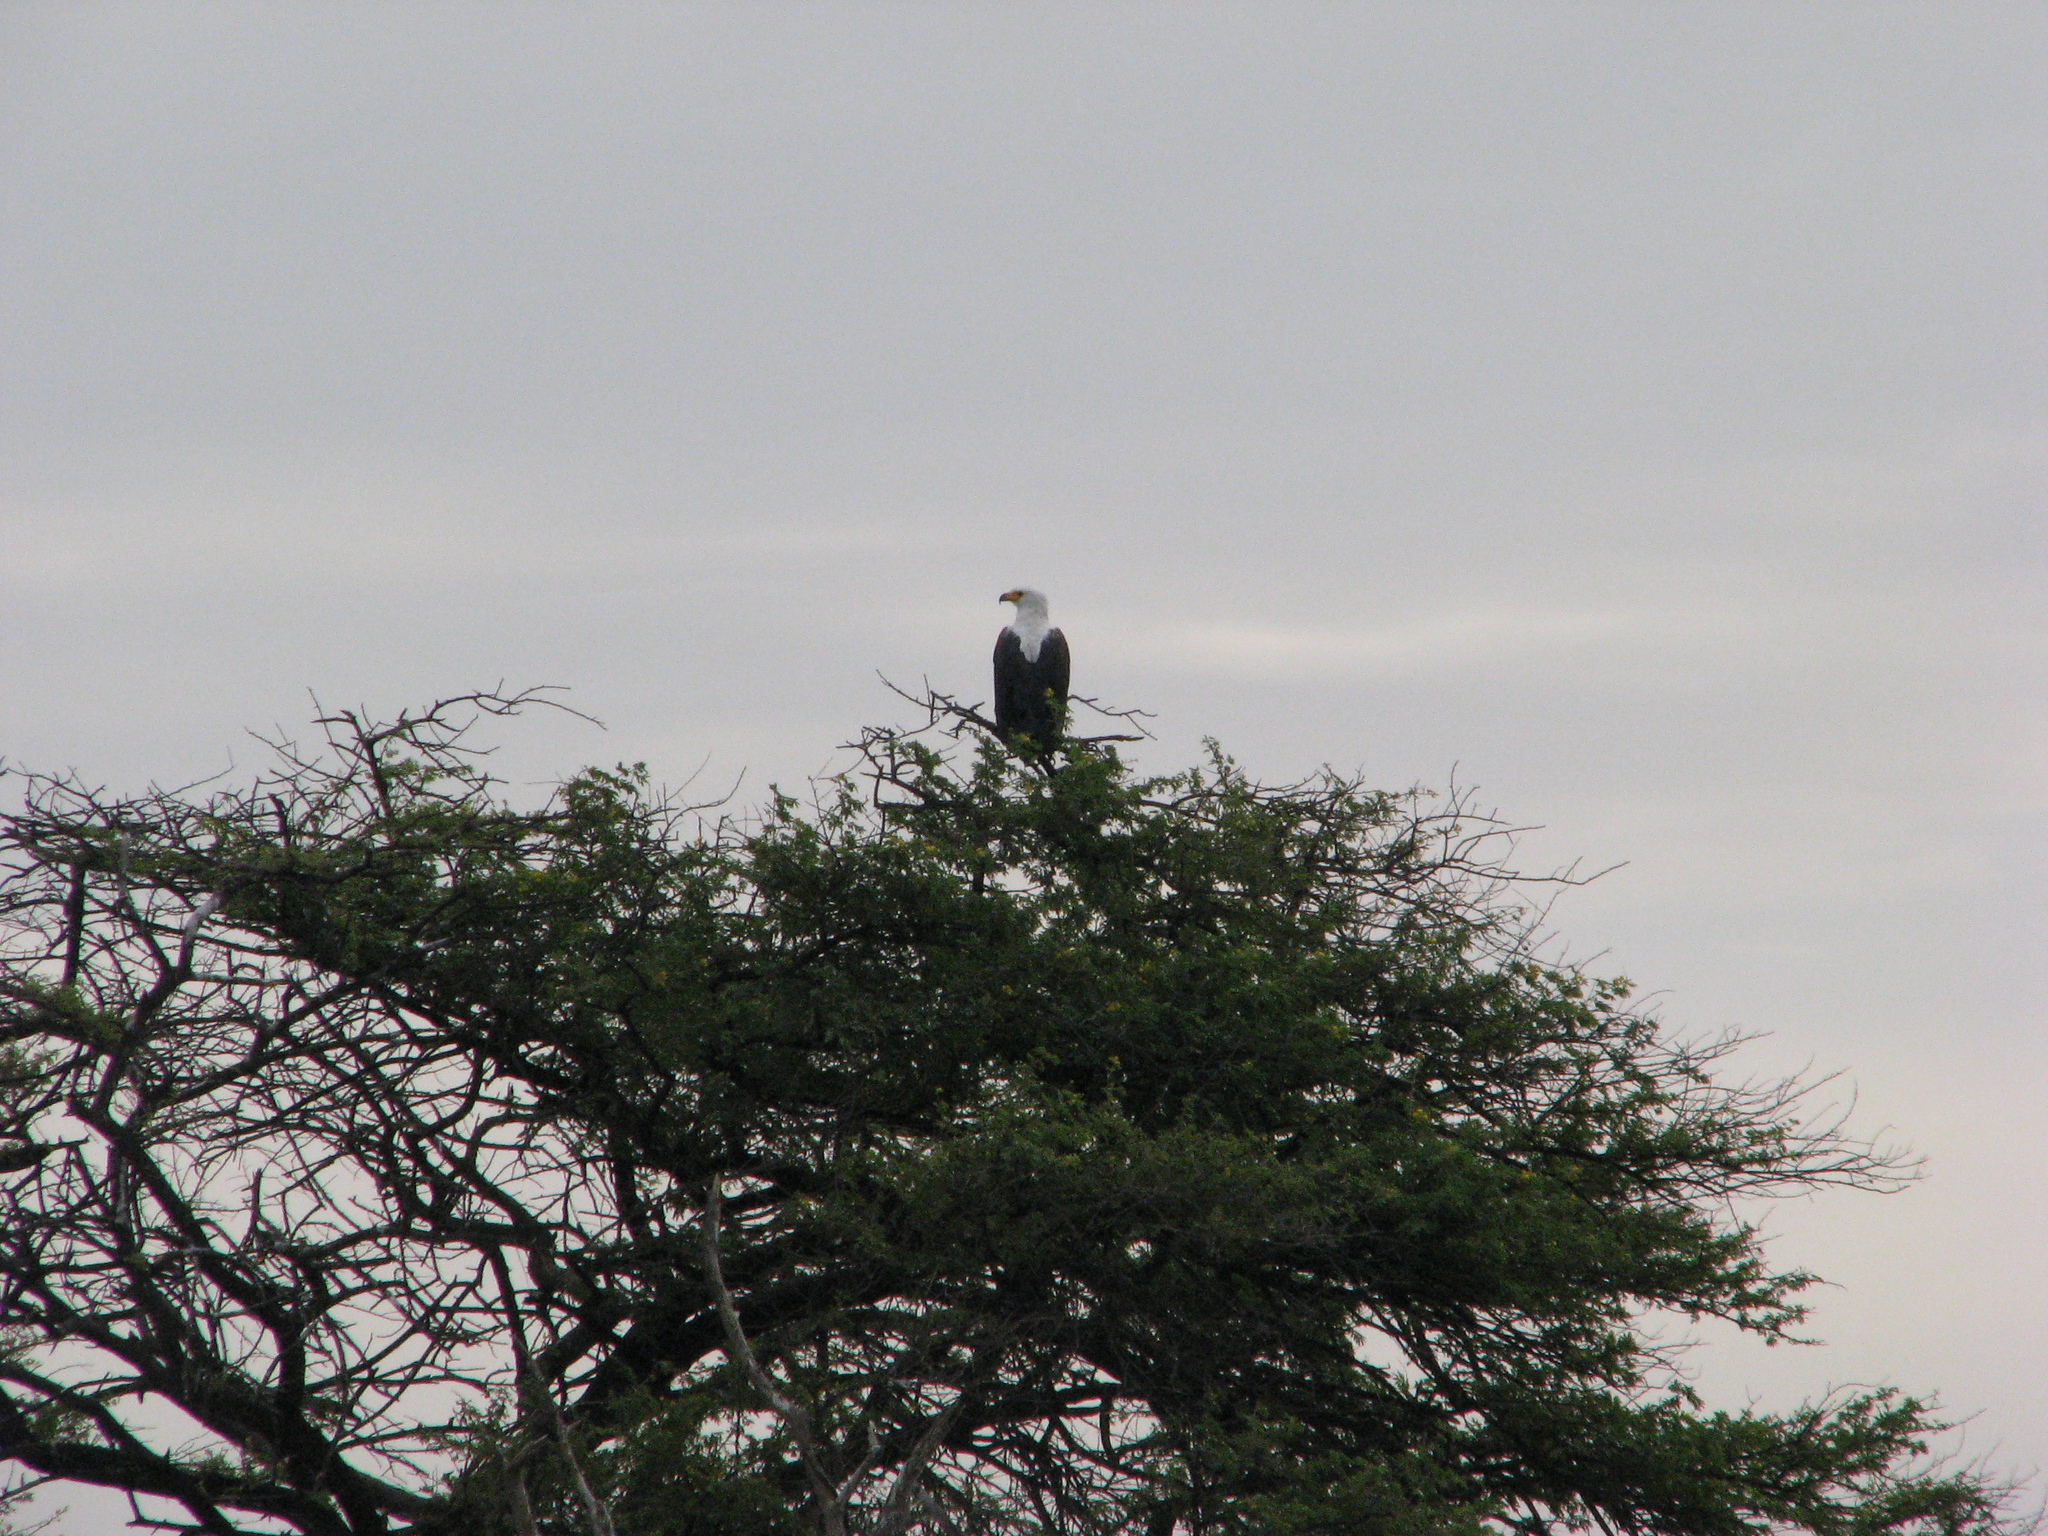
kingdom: Animalia
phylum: Chordata
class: Aves
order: Accipitriformes
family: Accipitridae
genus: Haliaeetus
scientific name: Haliaeetus vocifer
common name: African fish eagle
